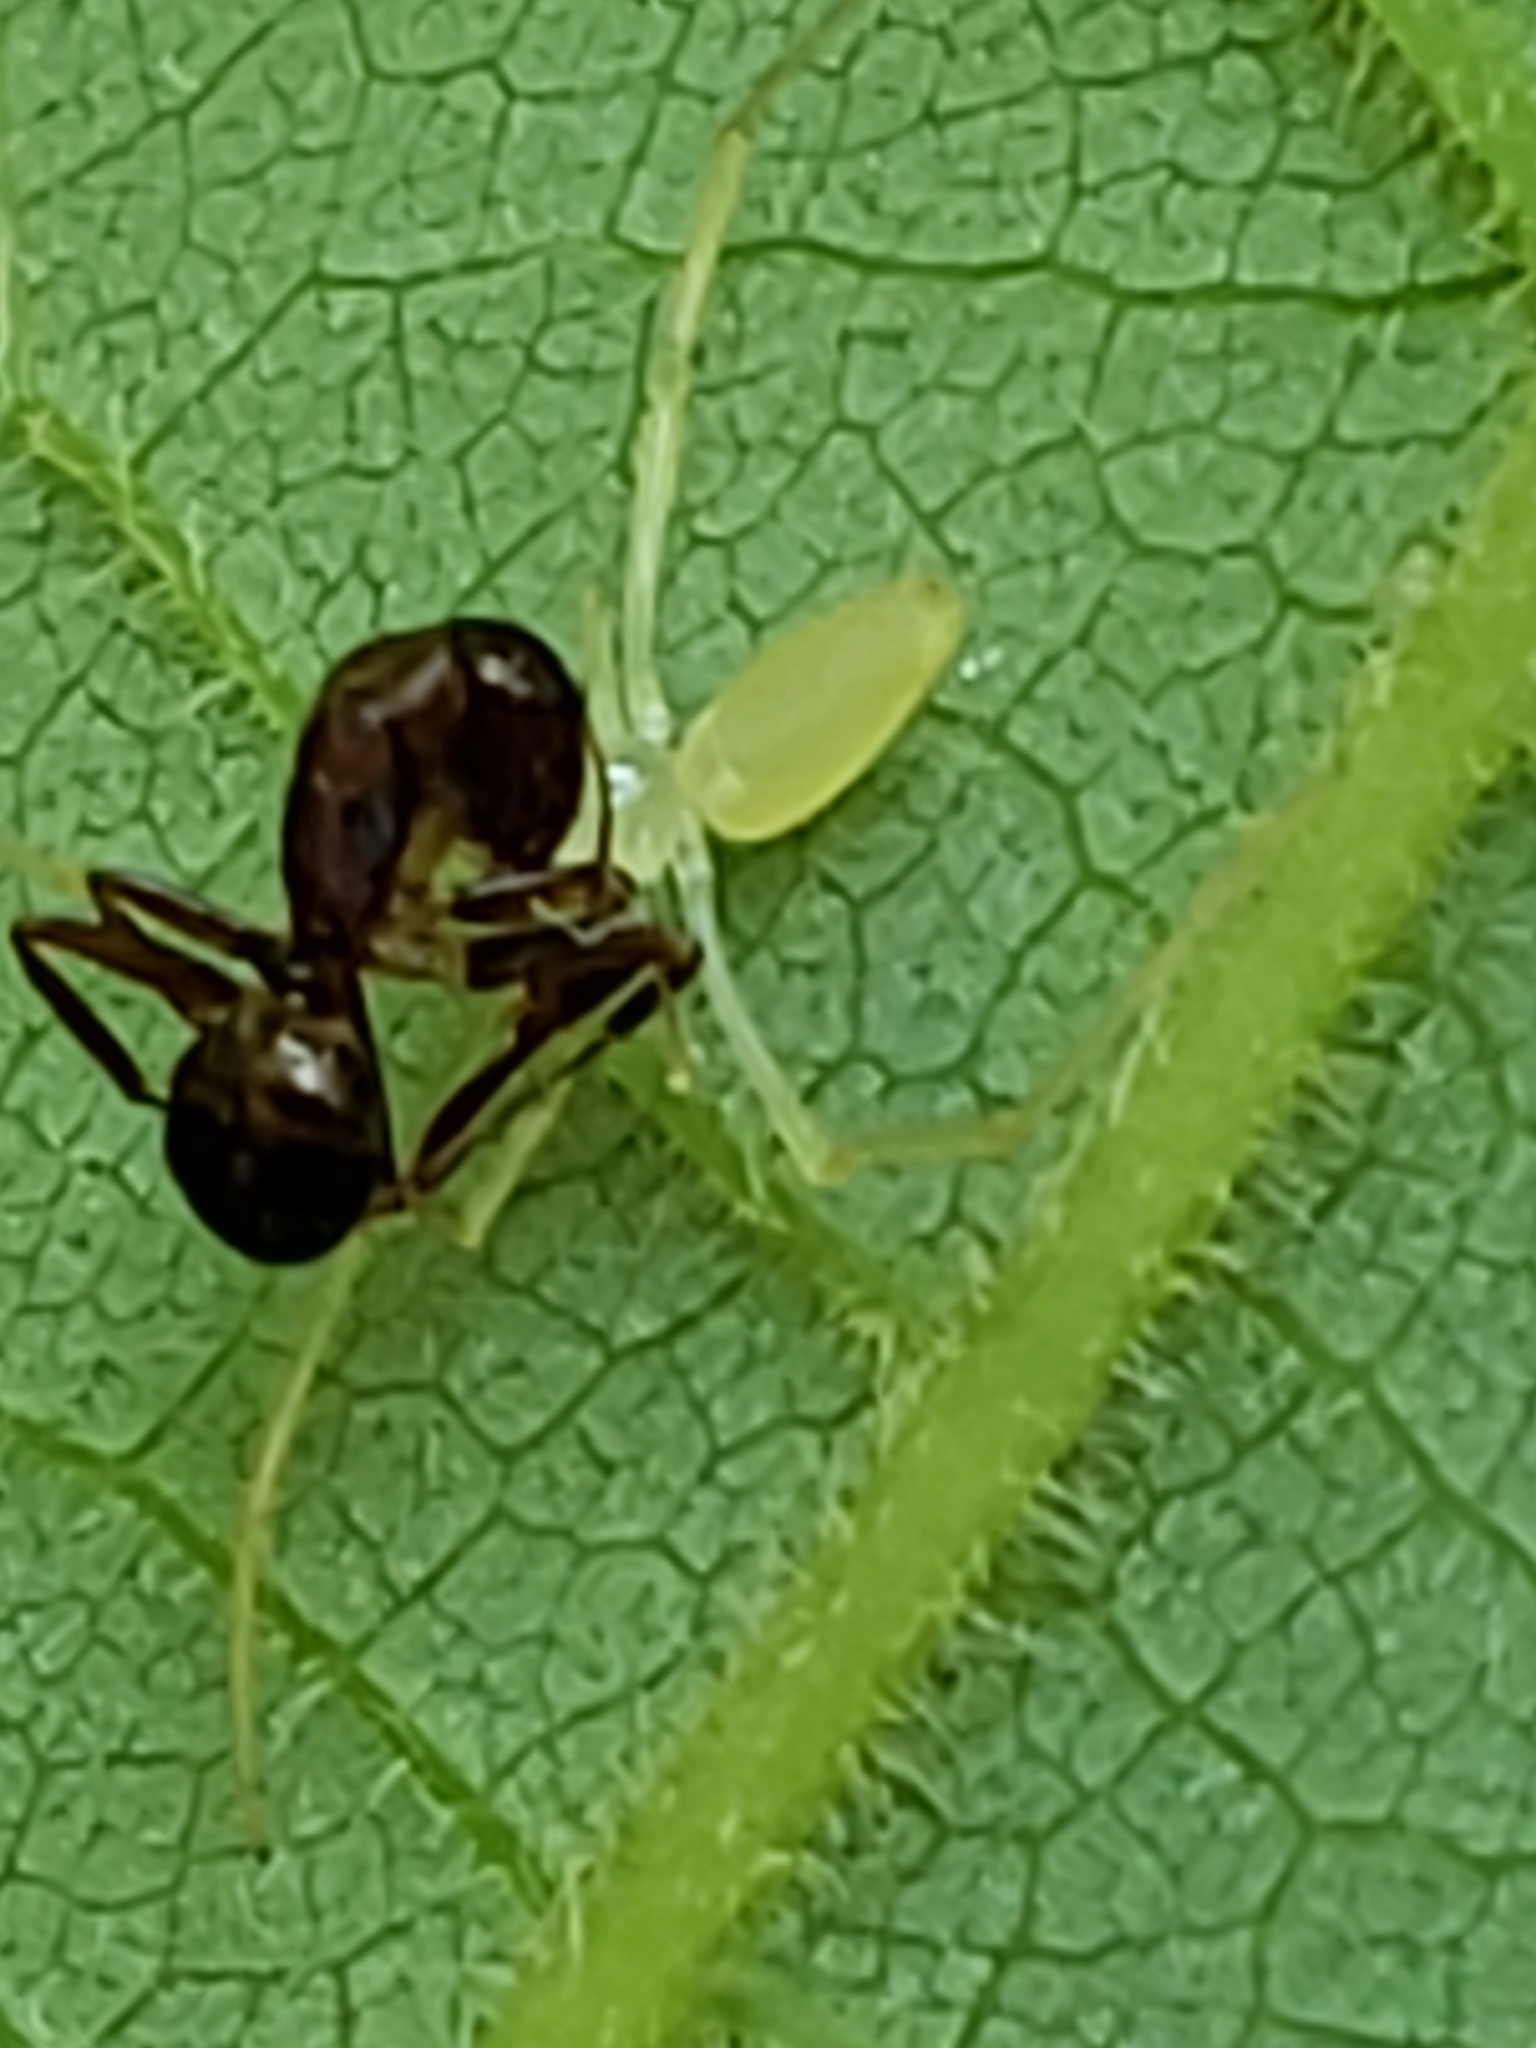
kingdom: Animalia
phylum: Arthropoda
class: Insecta
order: Hymenoptera
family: Formicidae
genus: Camponotus
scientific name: Camponotus subbarbatus
